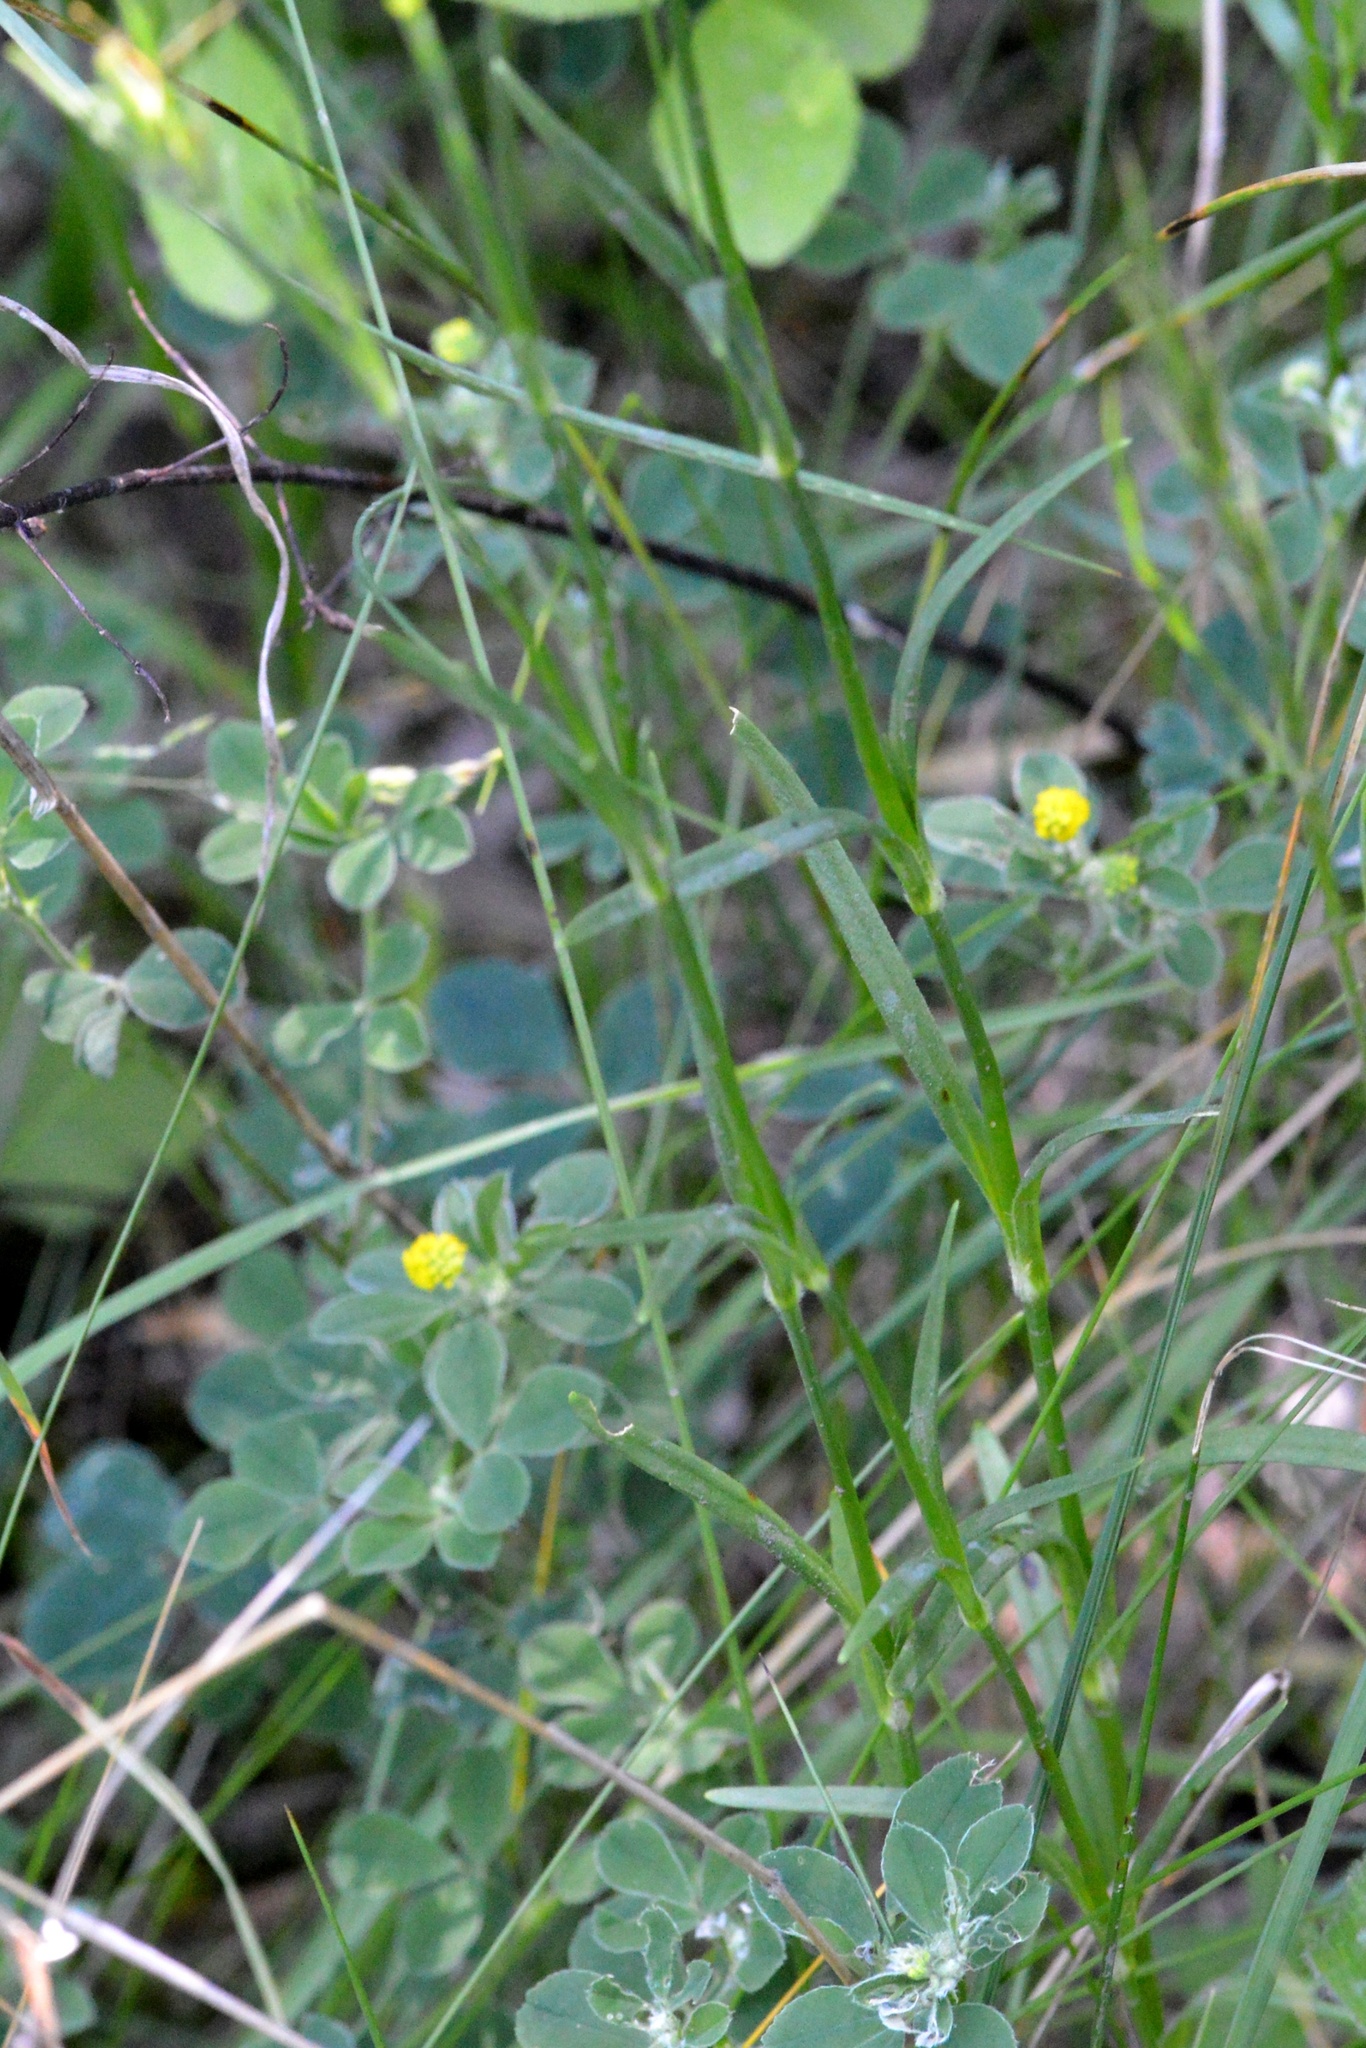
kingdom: Plantae
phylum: Tracheophyta
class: Magnoliopsida
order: Caryophyllales
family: Caryophyllaceae
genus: Dianthus
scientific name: Dianthus armeria
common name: Deptford pink
